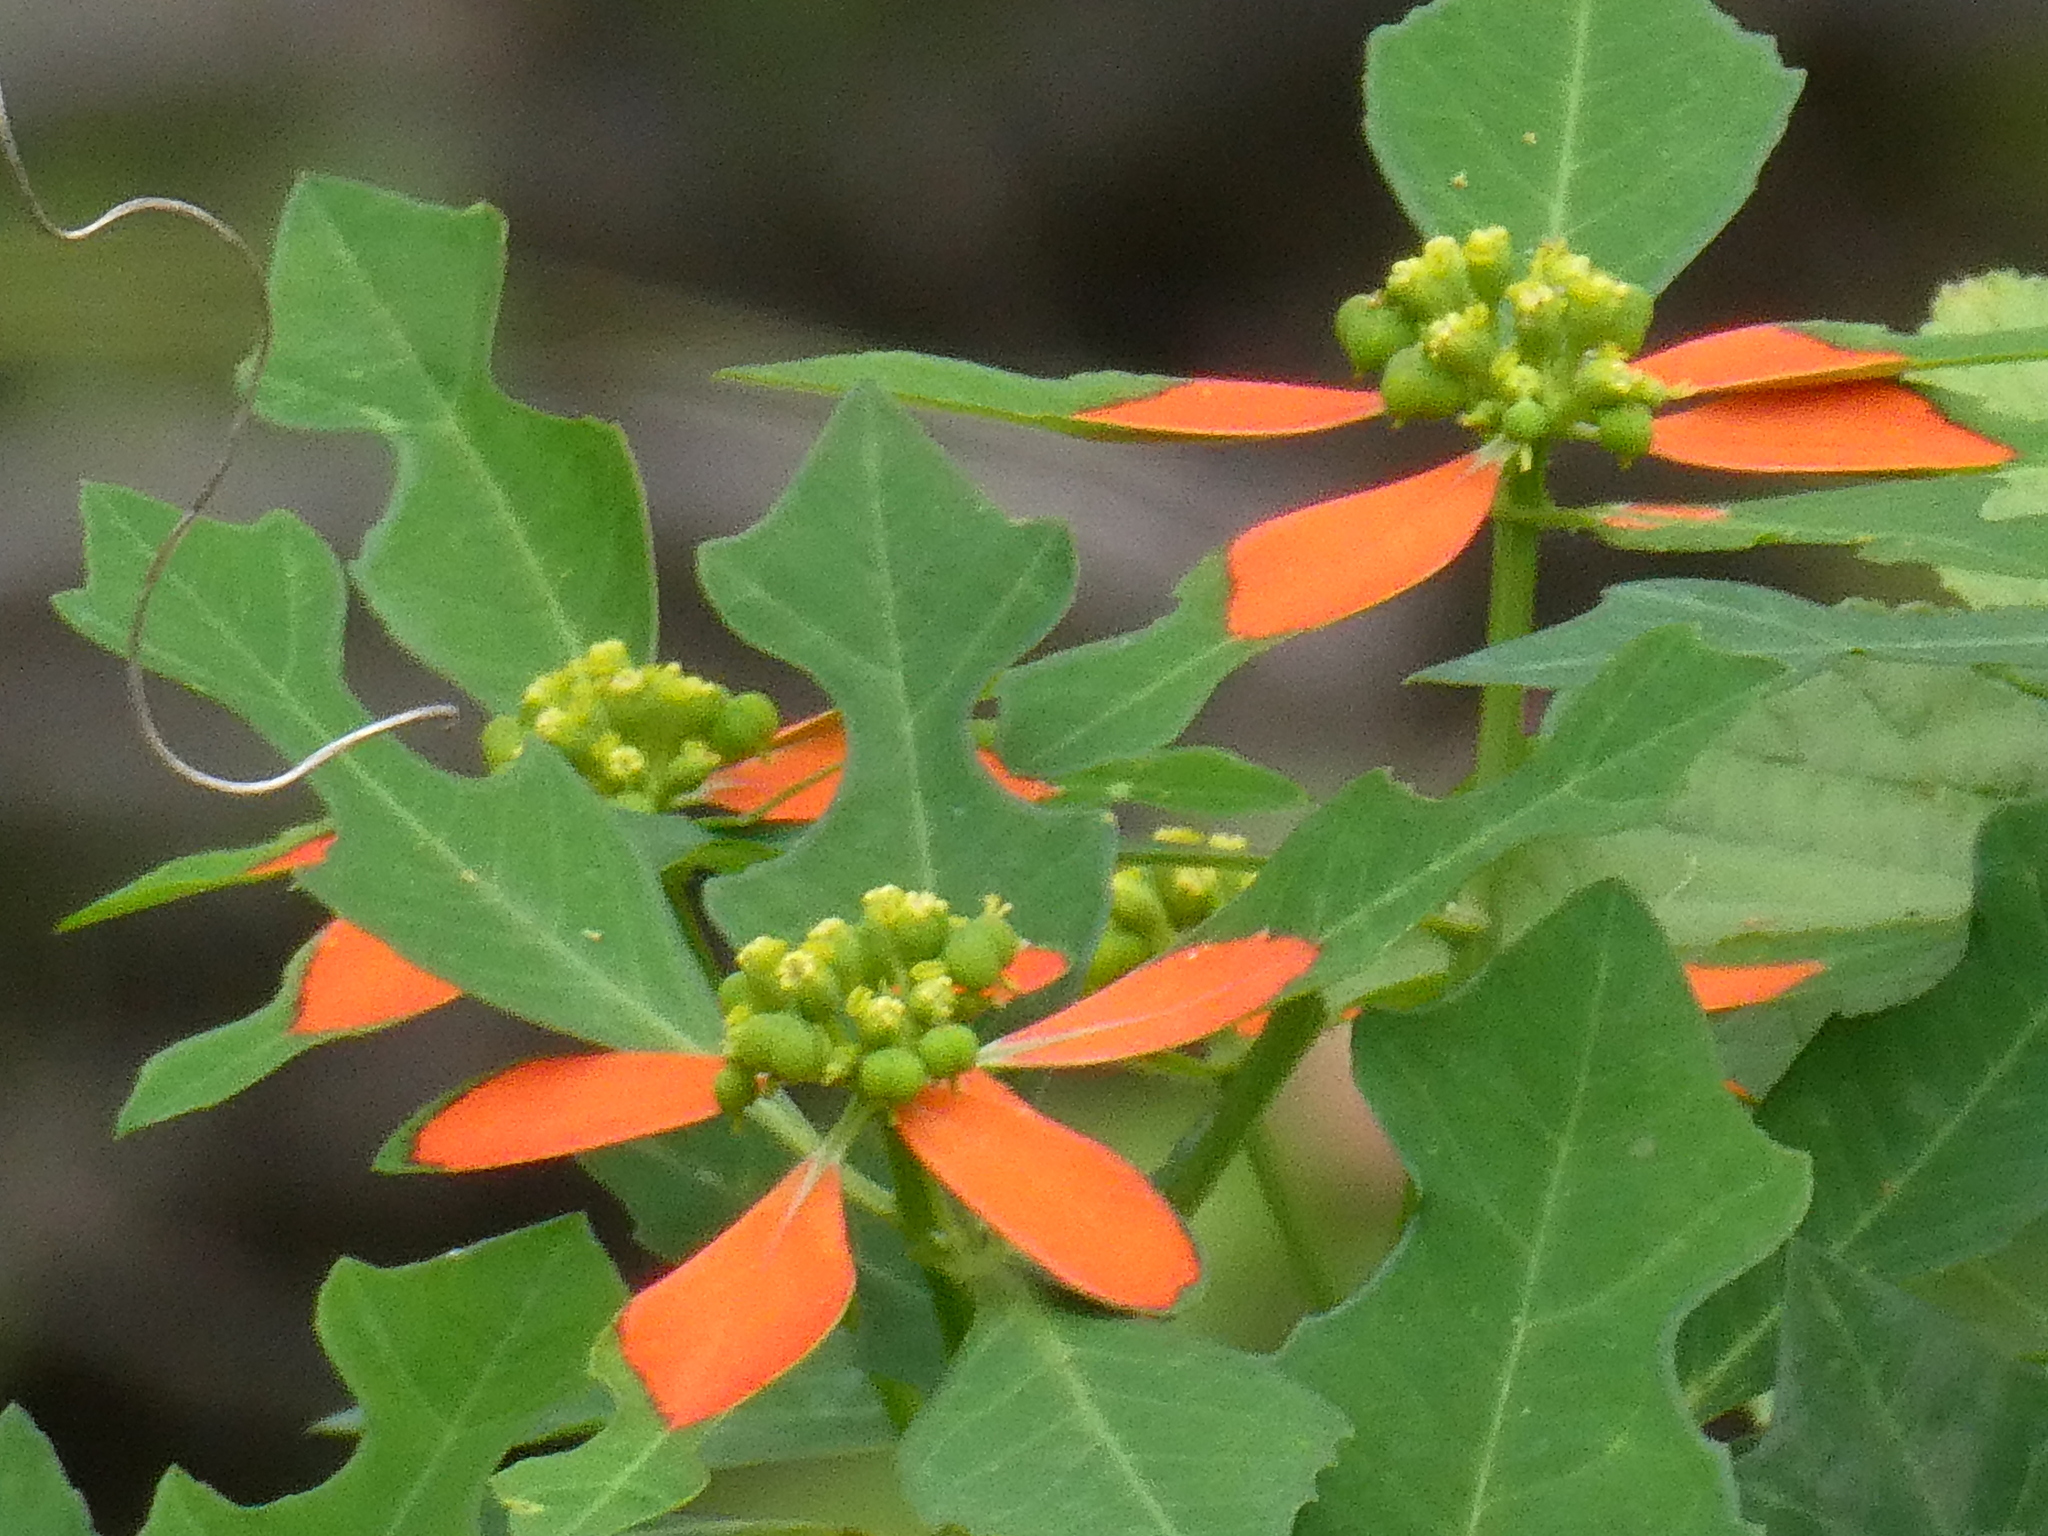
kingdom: Plantae
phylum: Tracheophyta
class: Magnoliopsida
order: Malpighiales
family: Euphorbiaceae
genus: Euphorbia
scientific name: Euphorbia heterophylla
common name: Mexican fireplant
